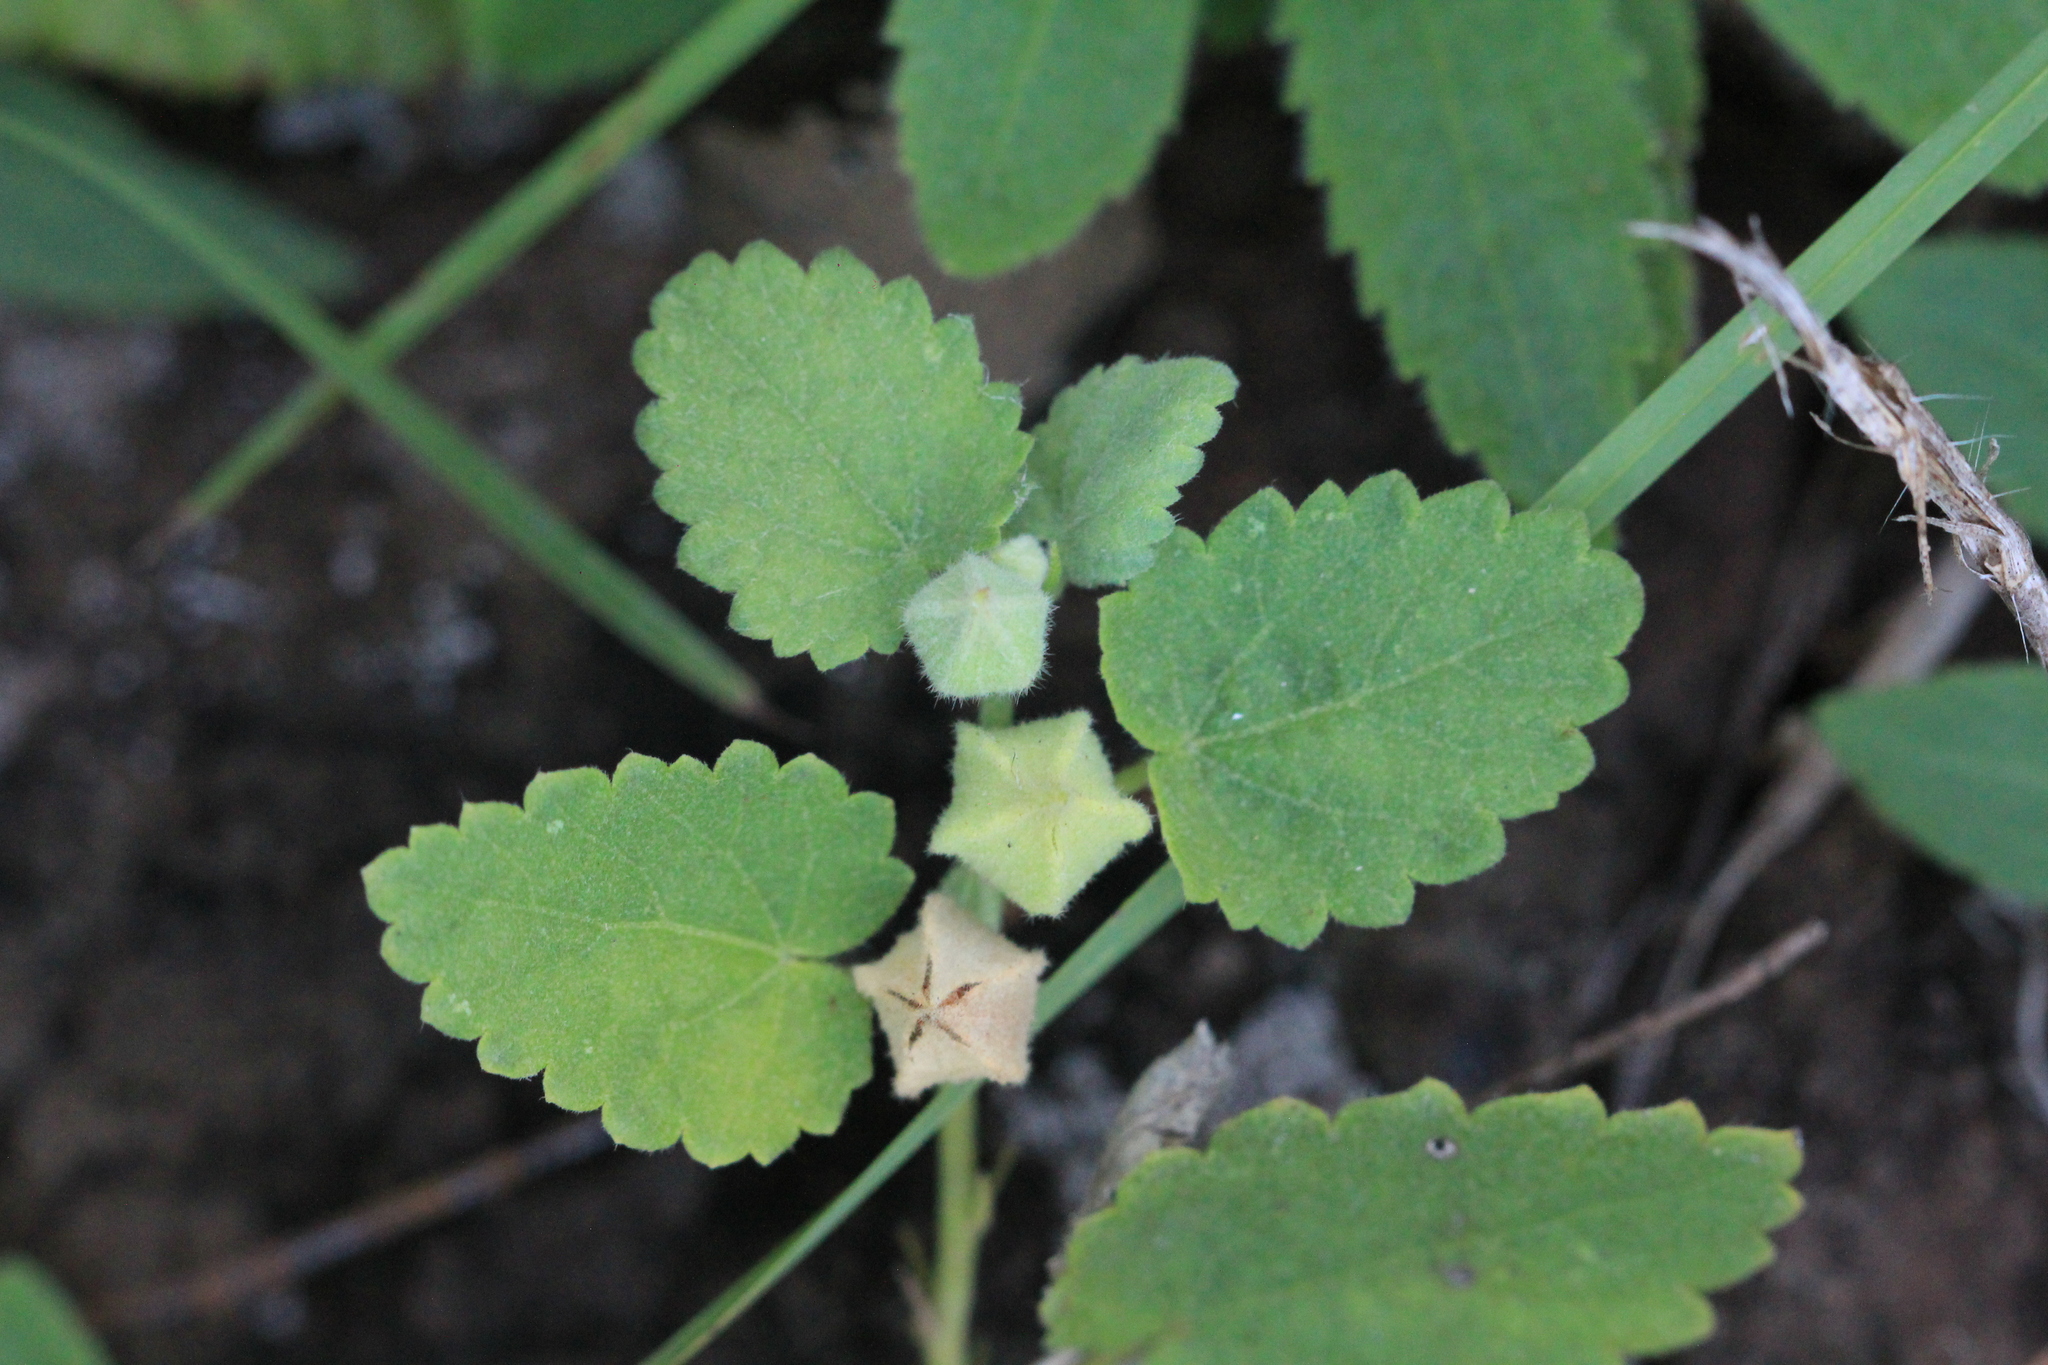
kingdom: Plantae
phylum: Tracheophyta
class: Magnoliopsida
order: Malvales
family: Malvaceae
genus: Krapovickasia
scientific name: Krapovickasia flavescens
